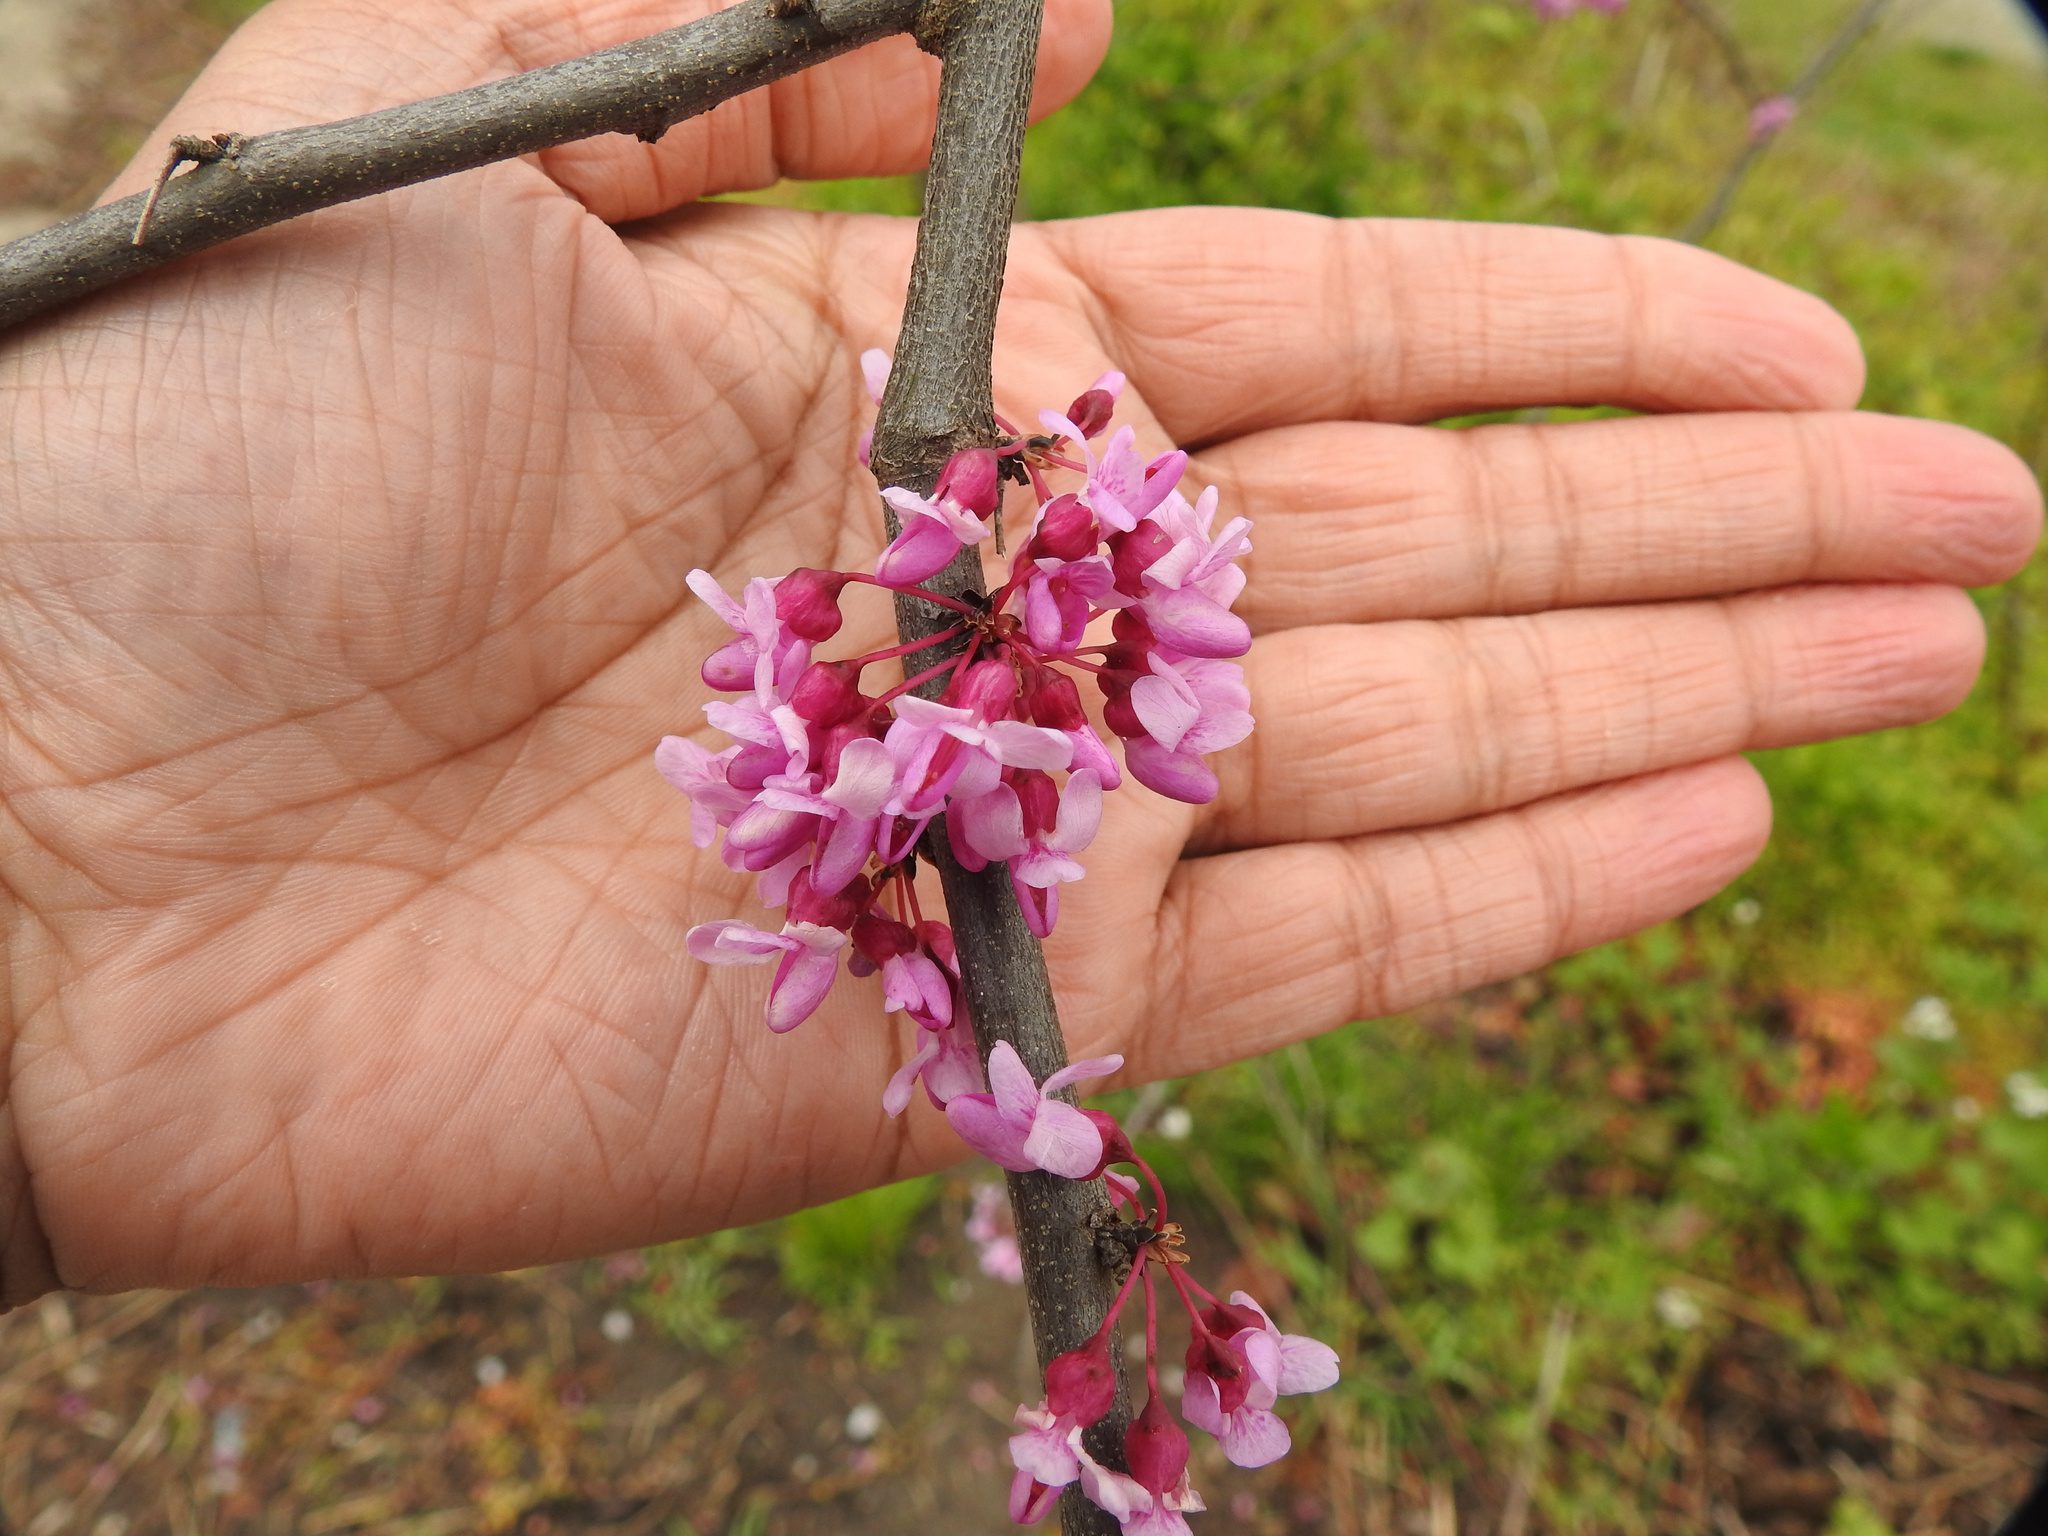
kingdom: Plantae
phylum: Tracheophyta
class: Magnoliopsida
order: Fabales
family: Fabaceae
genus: Cercis
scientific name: Cercis canadensis
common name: Eastern redbud
